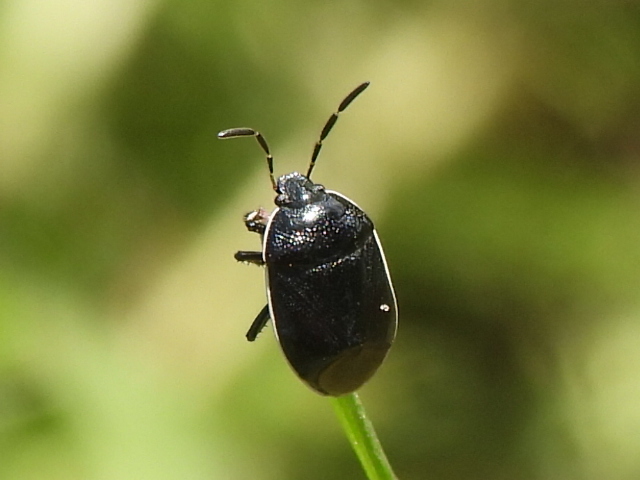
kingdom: Animalia
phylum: Arthropoda
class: Insecta
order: Hemiptera
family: Cydnidae
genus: Sehirus
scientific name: Sehirus cinctus
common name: White-margined burrower bug
